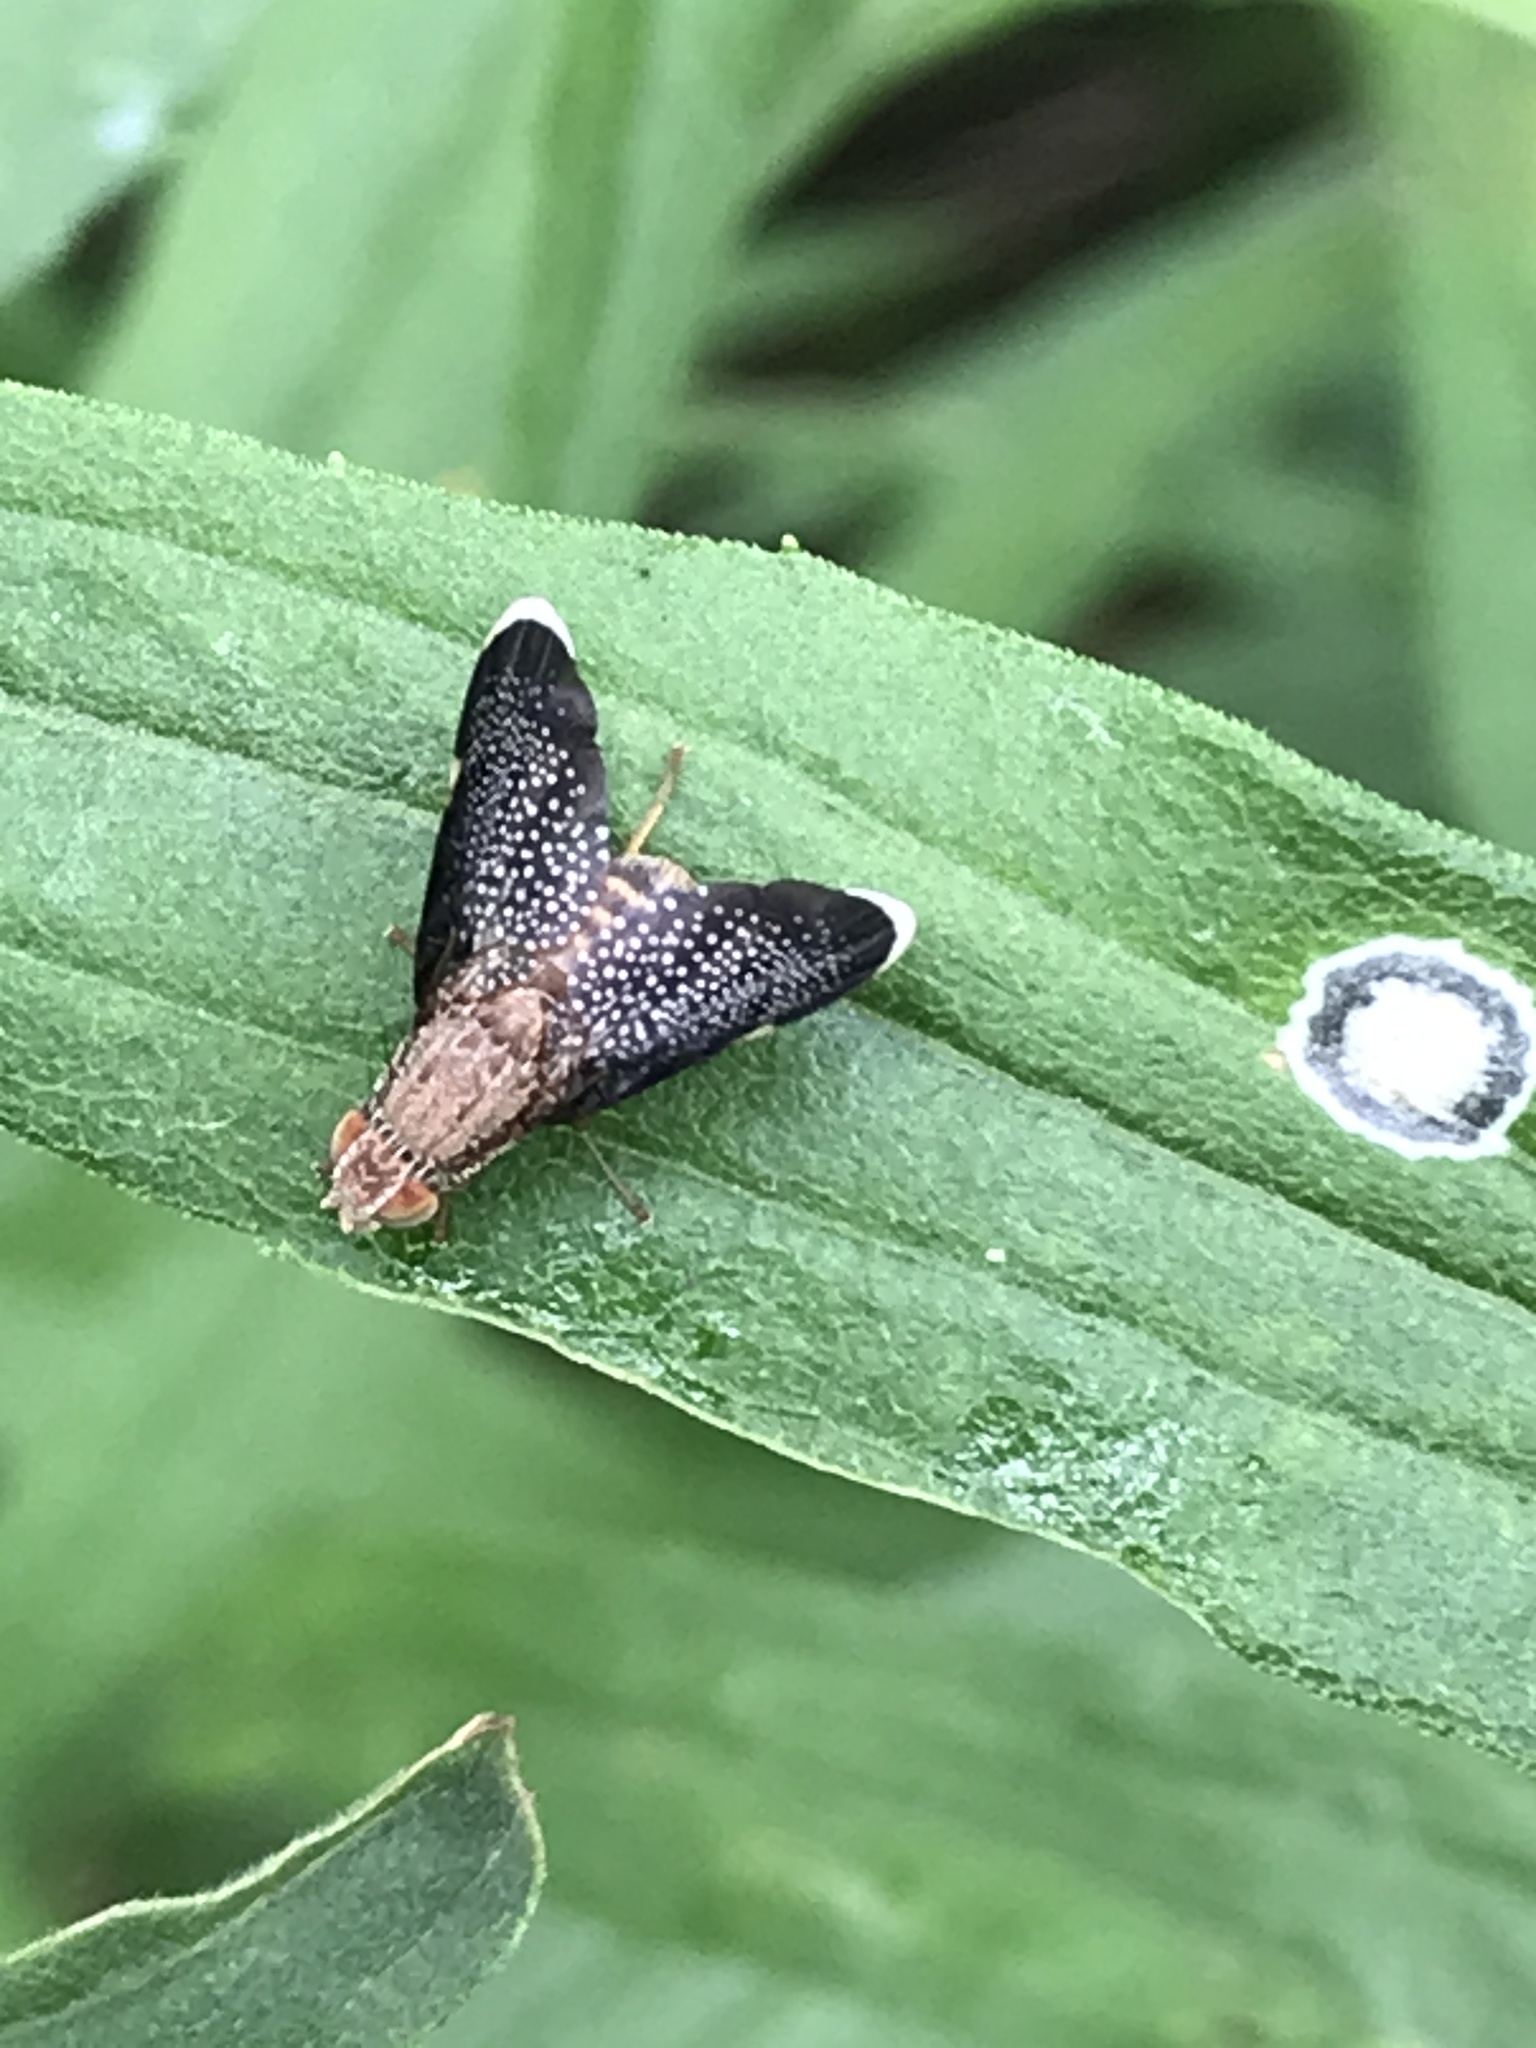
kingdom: Animalia
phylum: Arthropoda
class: Insecta
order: Diptera
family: Tephritidae
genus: Eutreta
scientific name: Eutreta novaeboracensis
